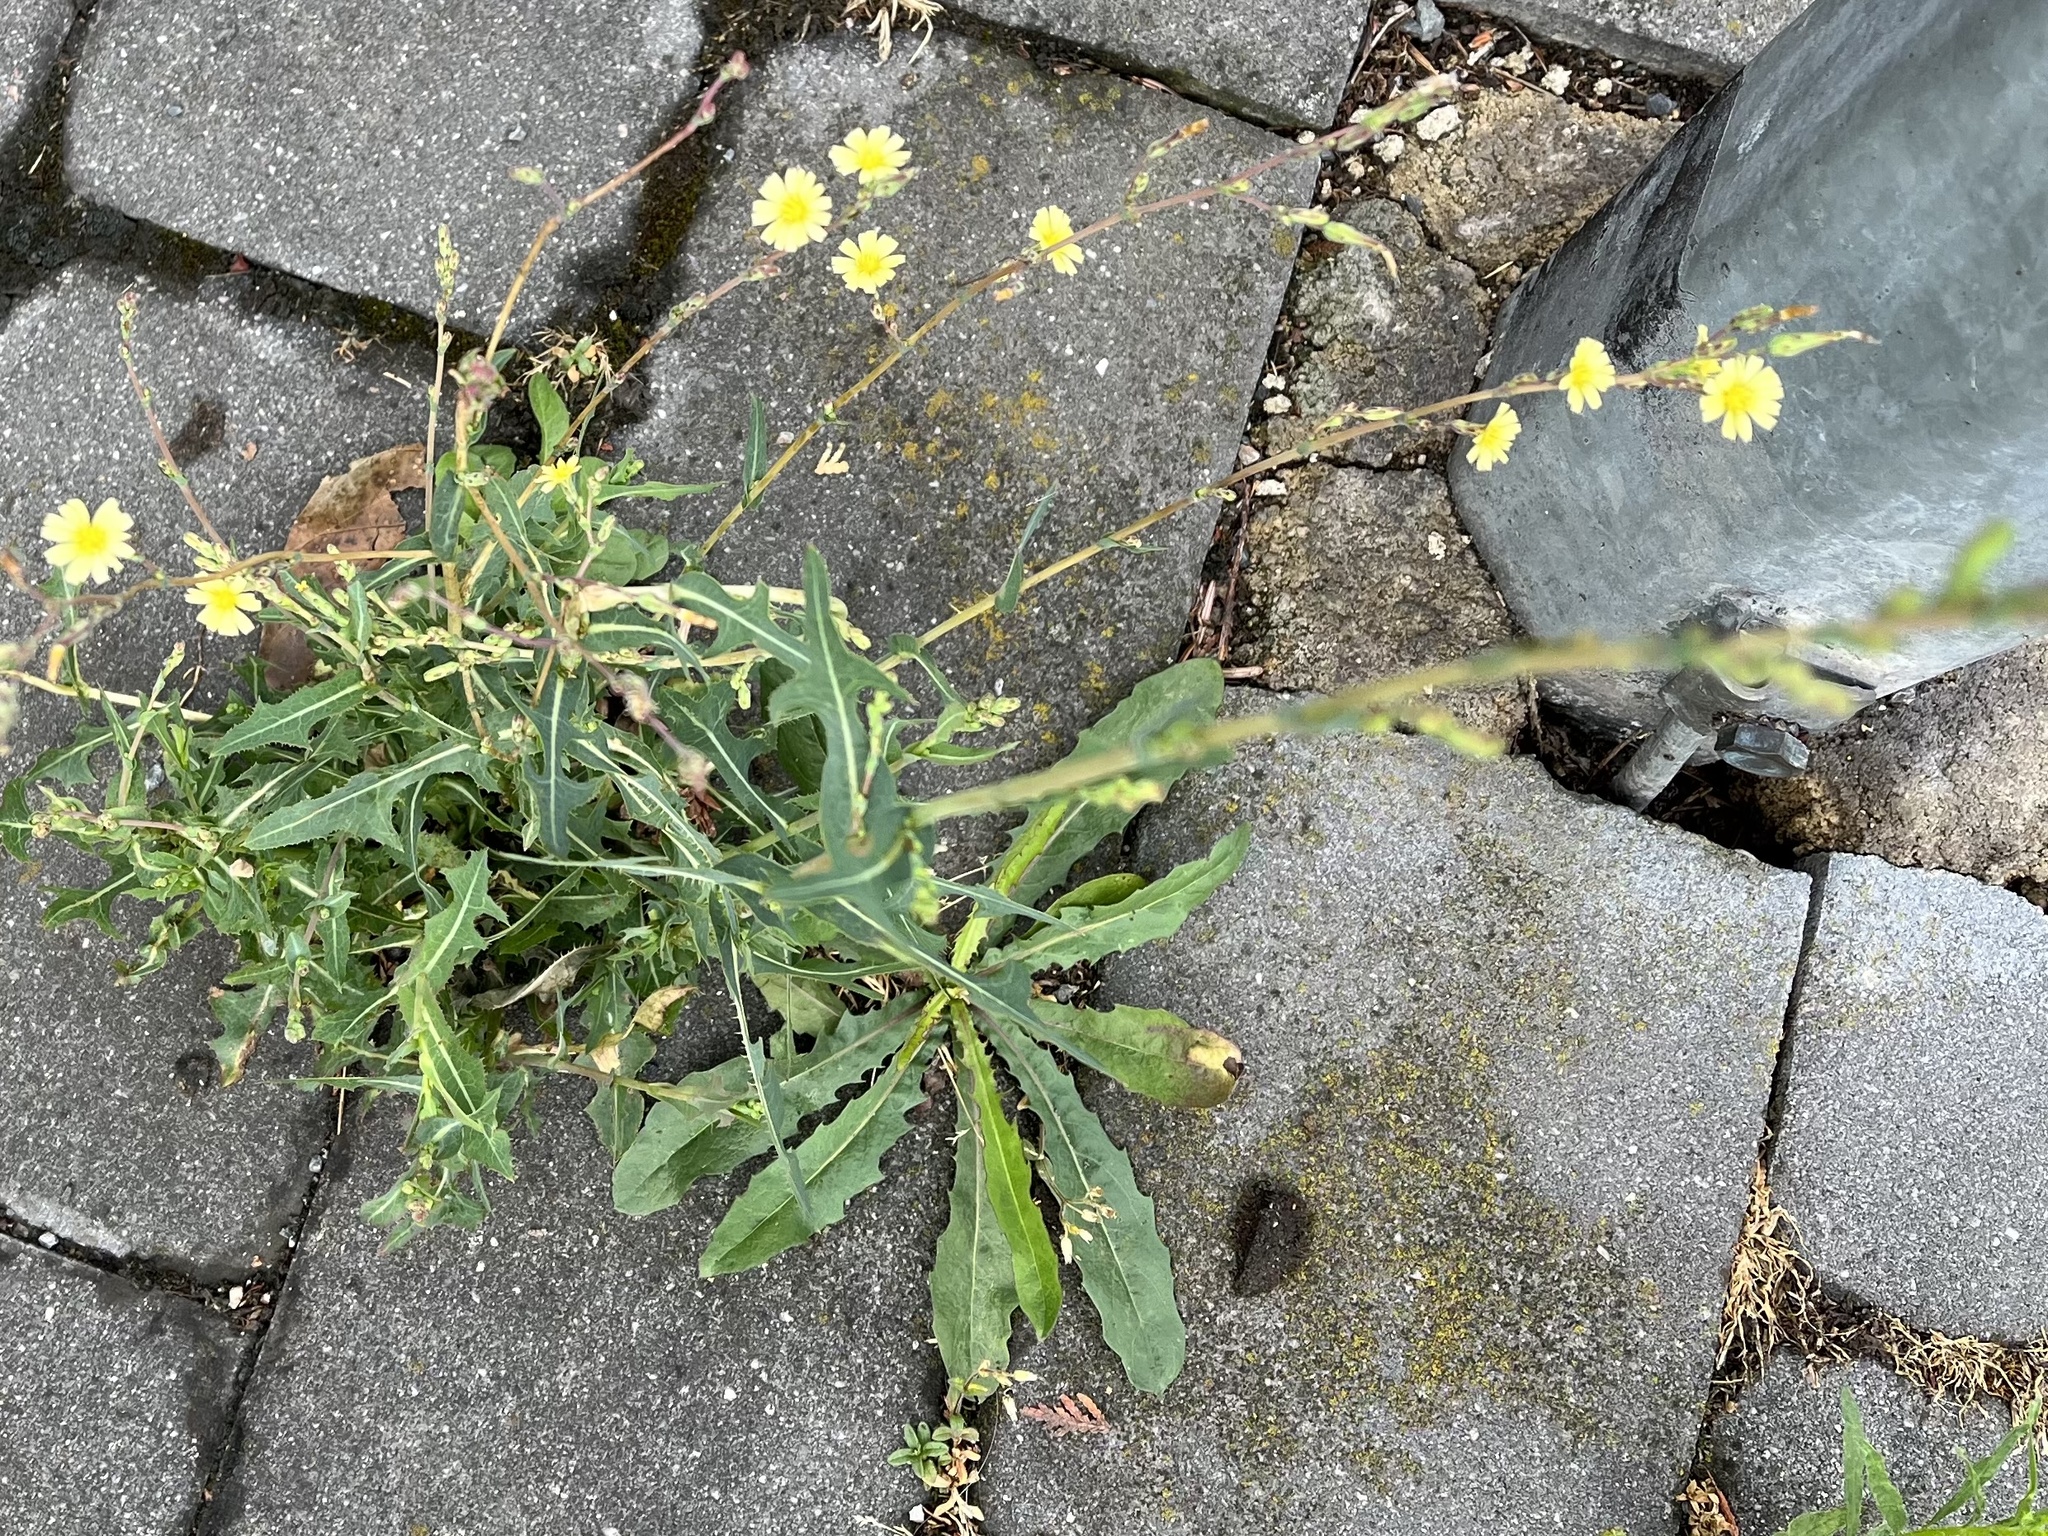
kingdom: Plantae
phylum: Tracheophyta
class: Magnoliopsida
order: Asterales
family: Asteraceae
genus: Lactuca
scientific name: Lactuca serriola
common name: Prickly lettuce
